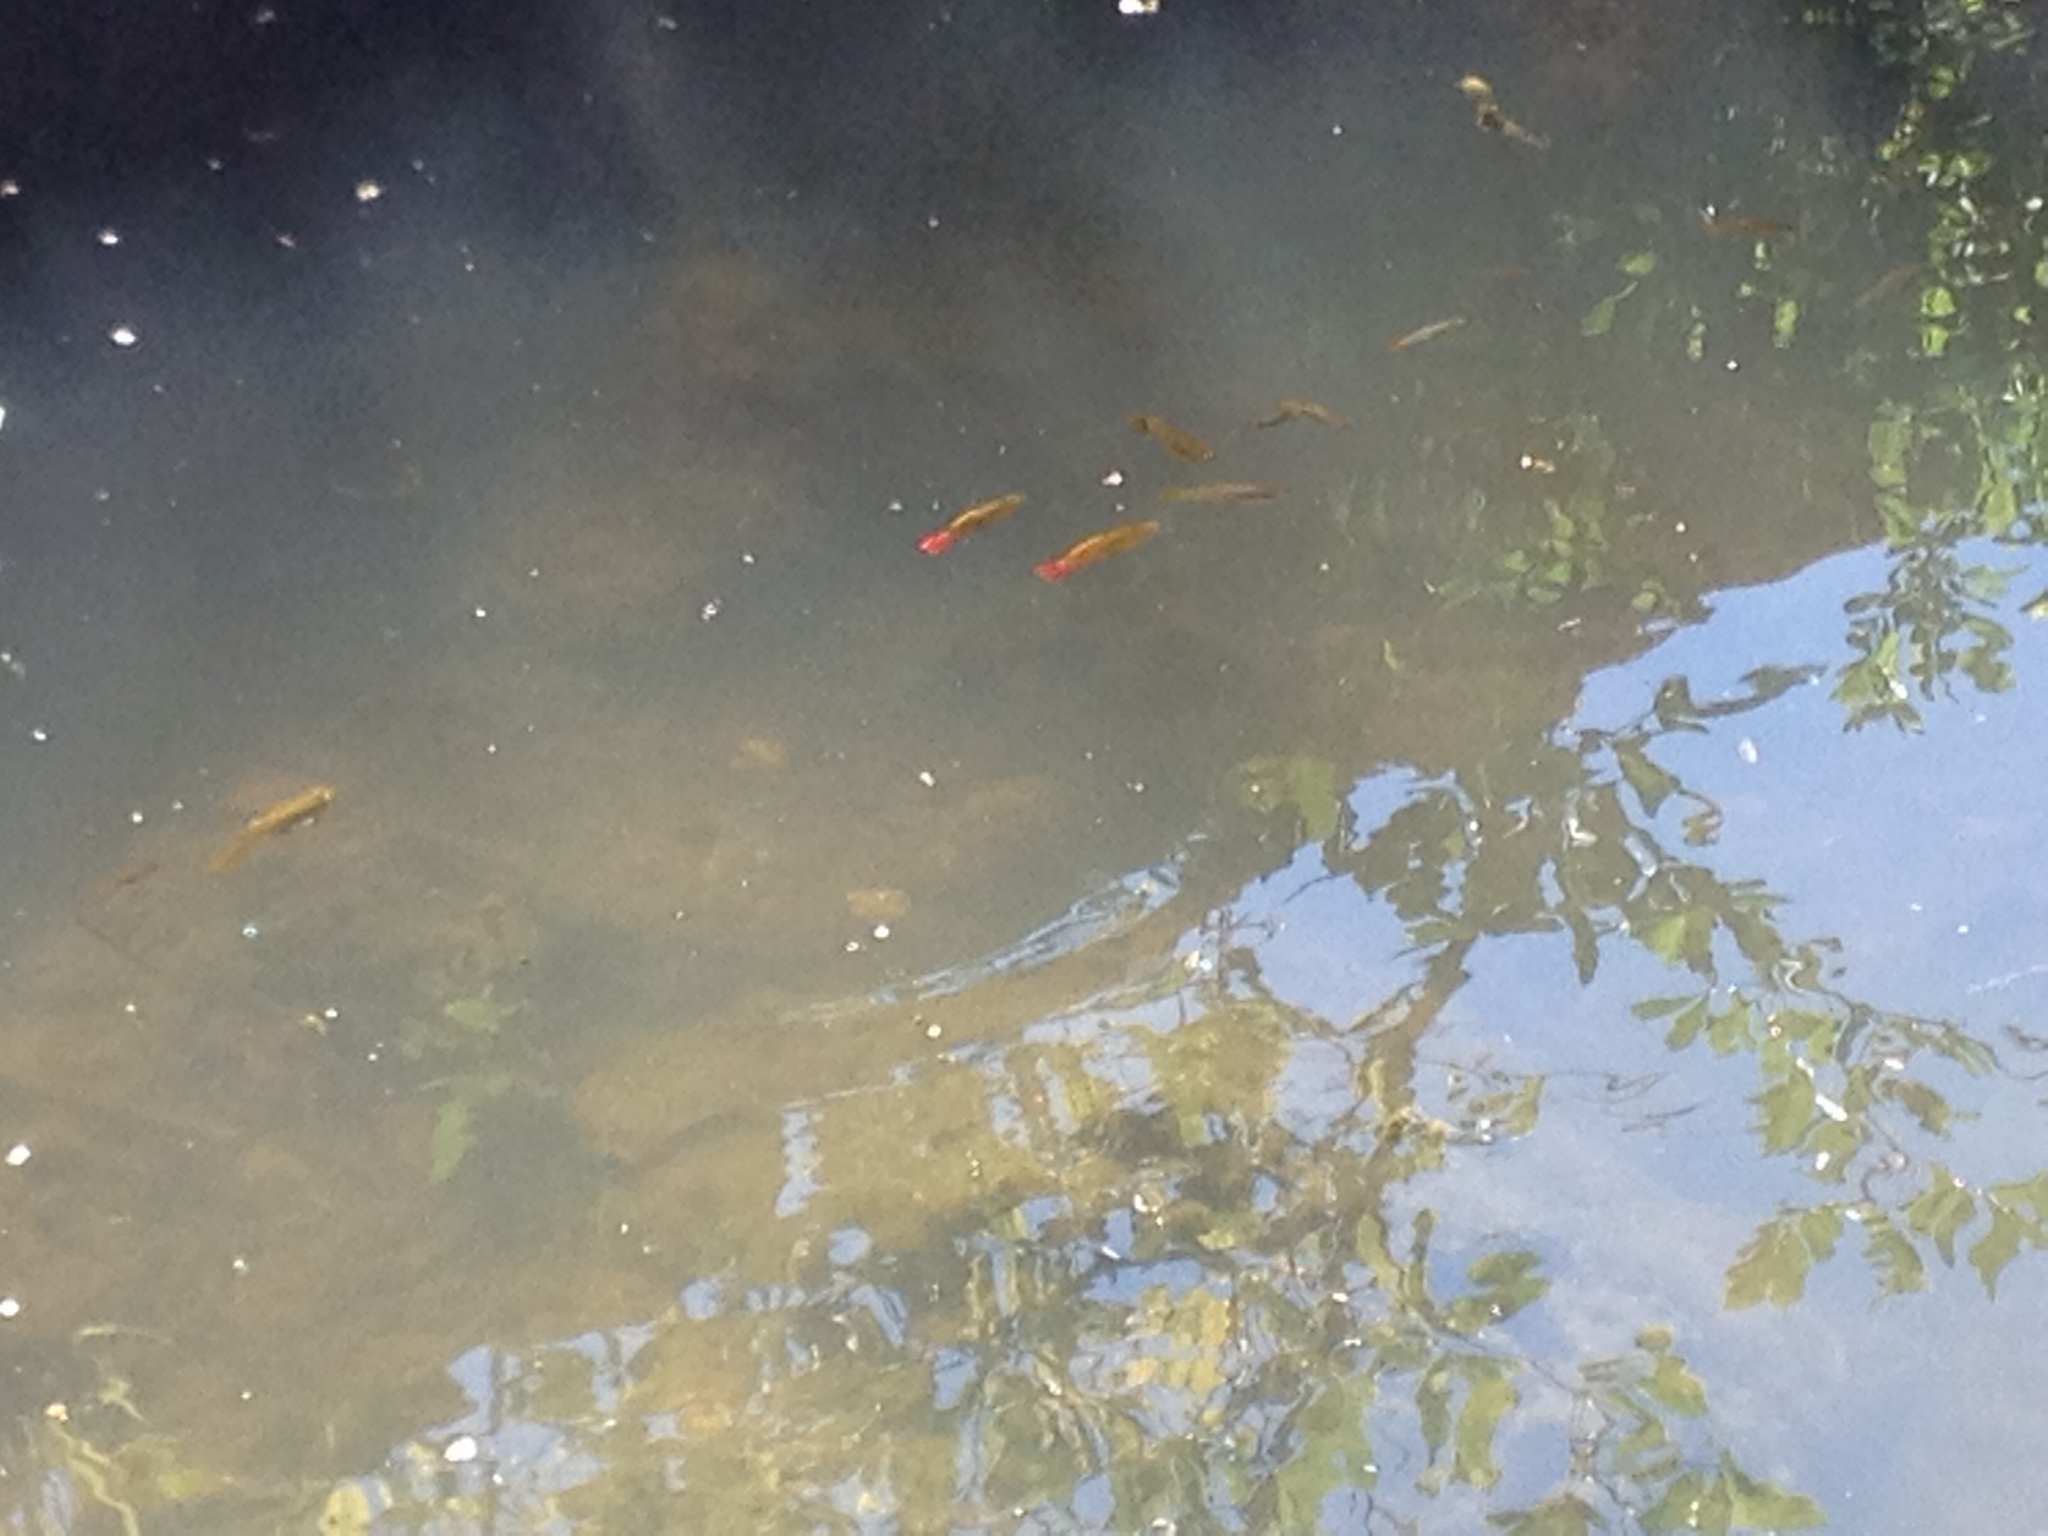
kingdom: Animalia
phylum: Chordata
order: Cyprinodontiformes
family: Poeciliidae
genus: Xiphophorus
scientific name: Xiphophorus variatus
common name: Variable platyfish
